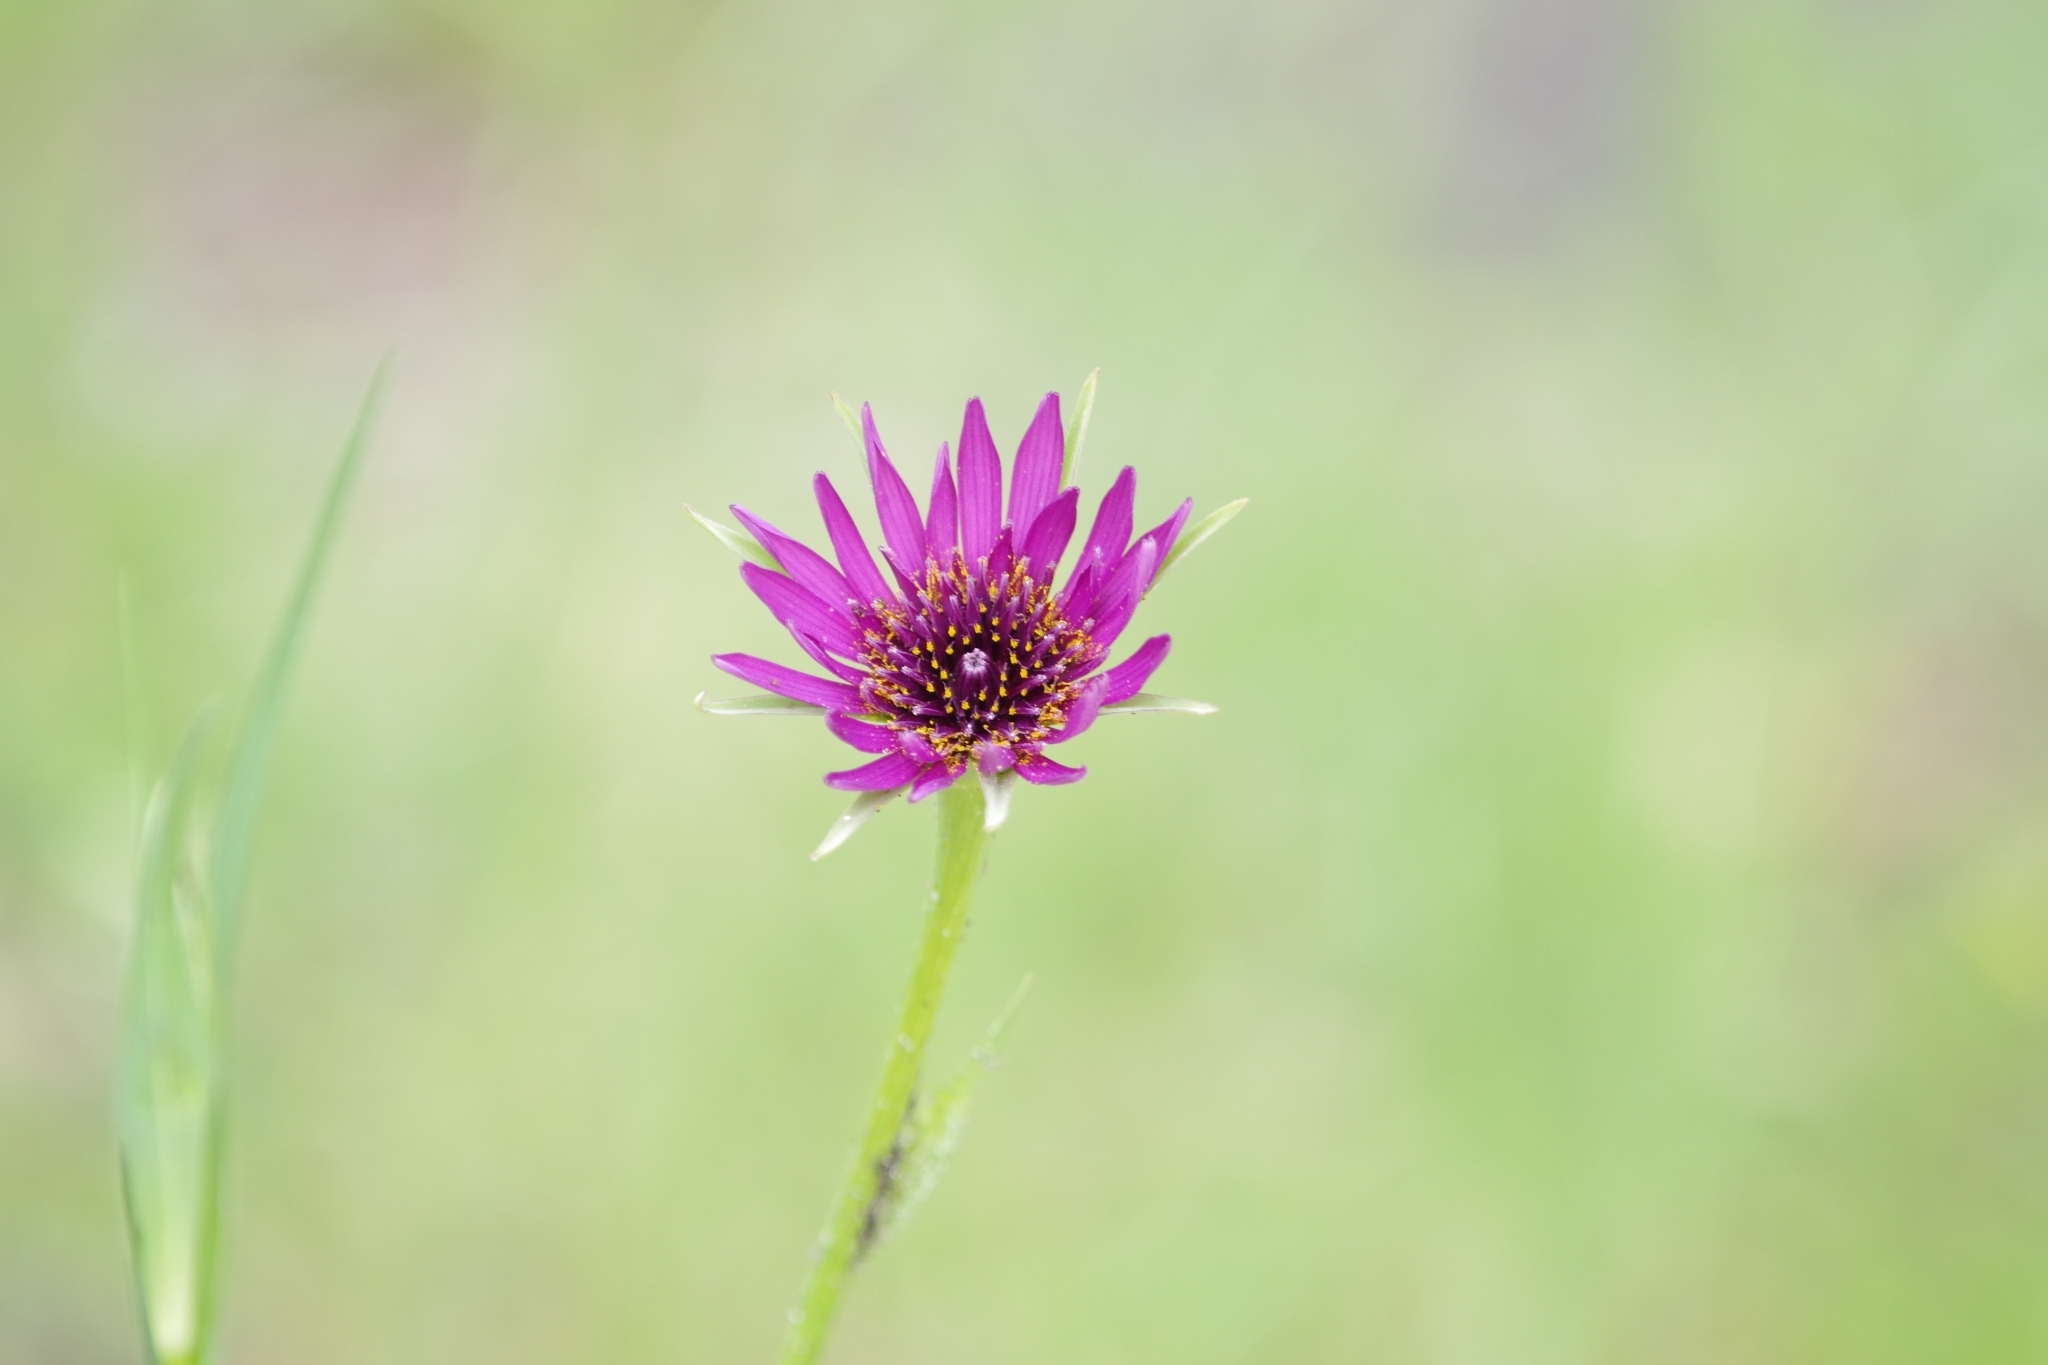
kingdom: Plantae
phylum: Tracheophyta
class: Magnoliopsida
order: Asterales
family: Asteraceae
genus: Tragopogon
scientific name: Tragopogon porrifolius
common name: Salsify
